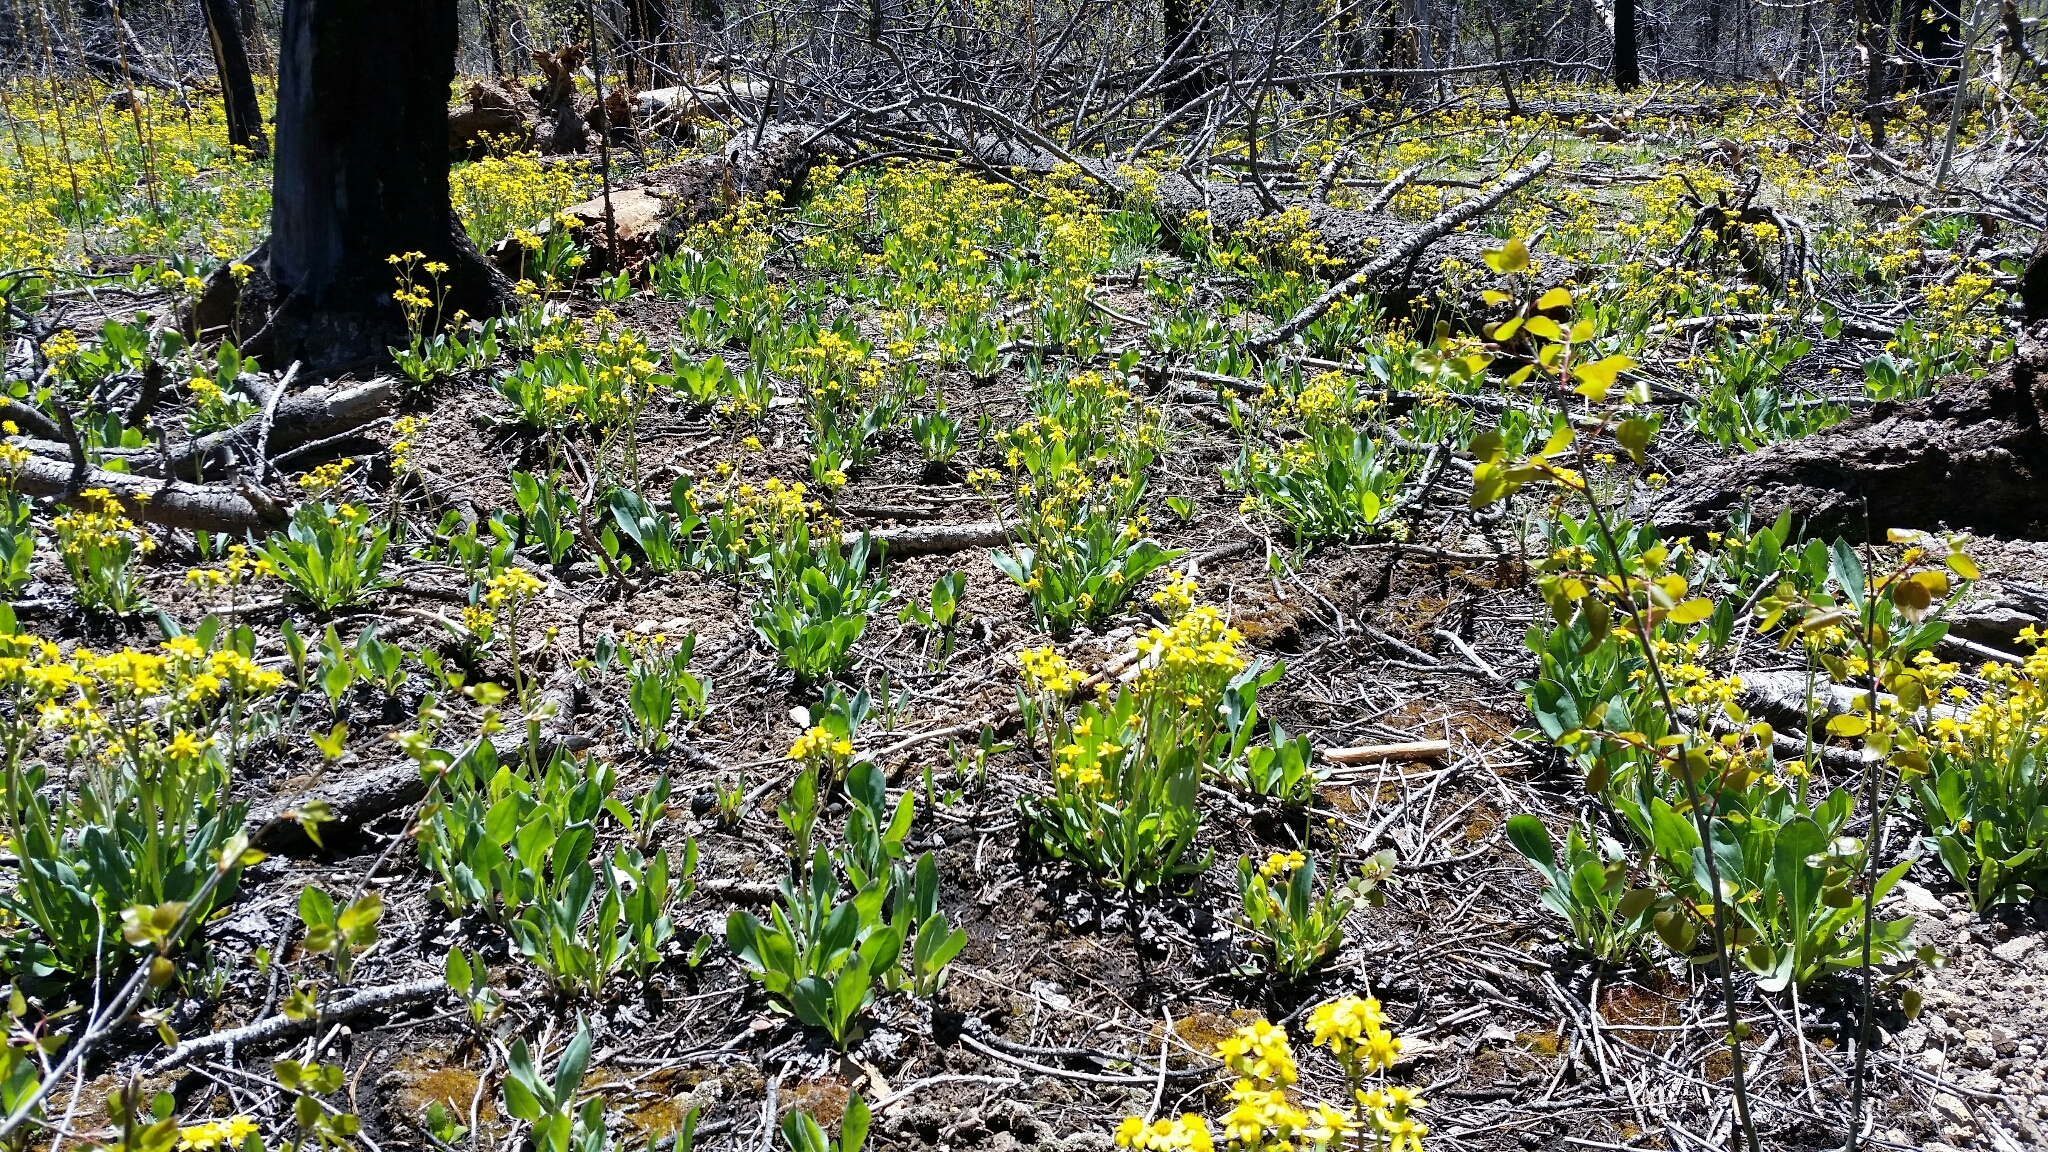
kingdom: Plantae
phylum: Tracheophyta
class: Magnoliopsida
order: Asterales
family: Asteraceae
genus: Senecio
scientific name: Senecio wootonii
